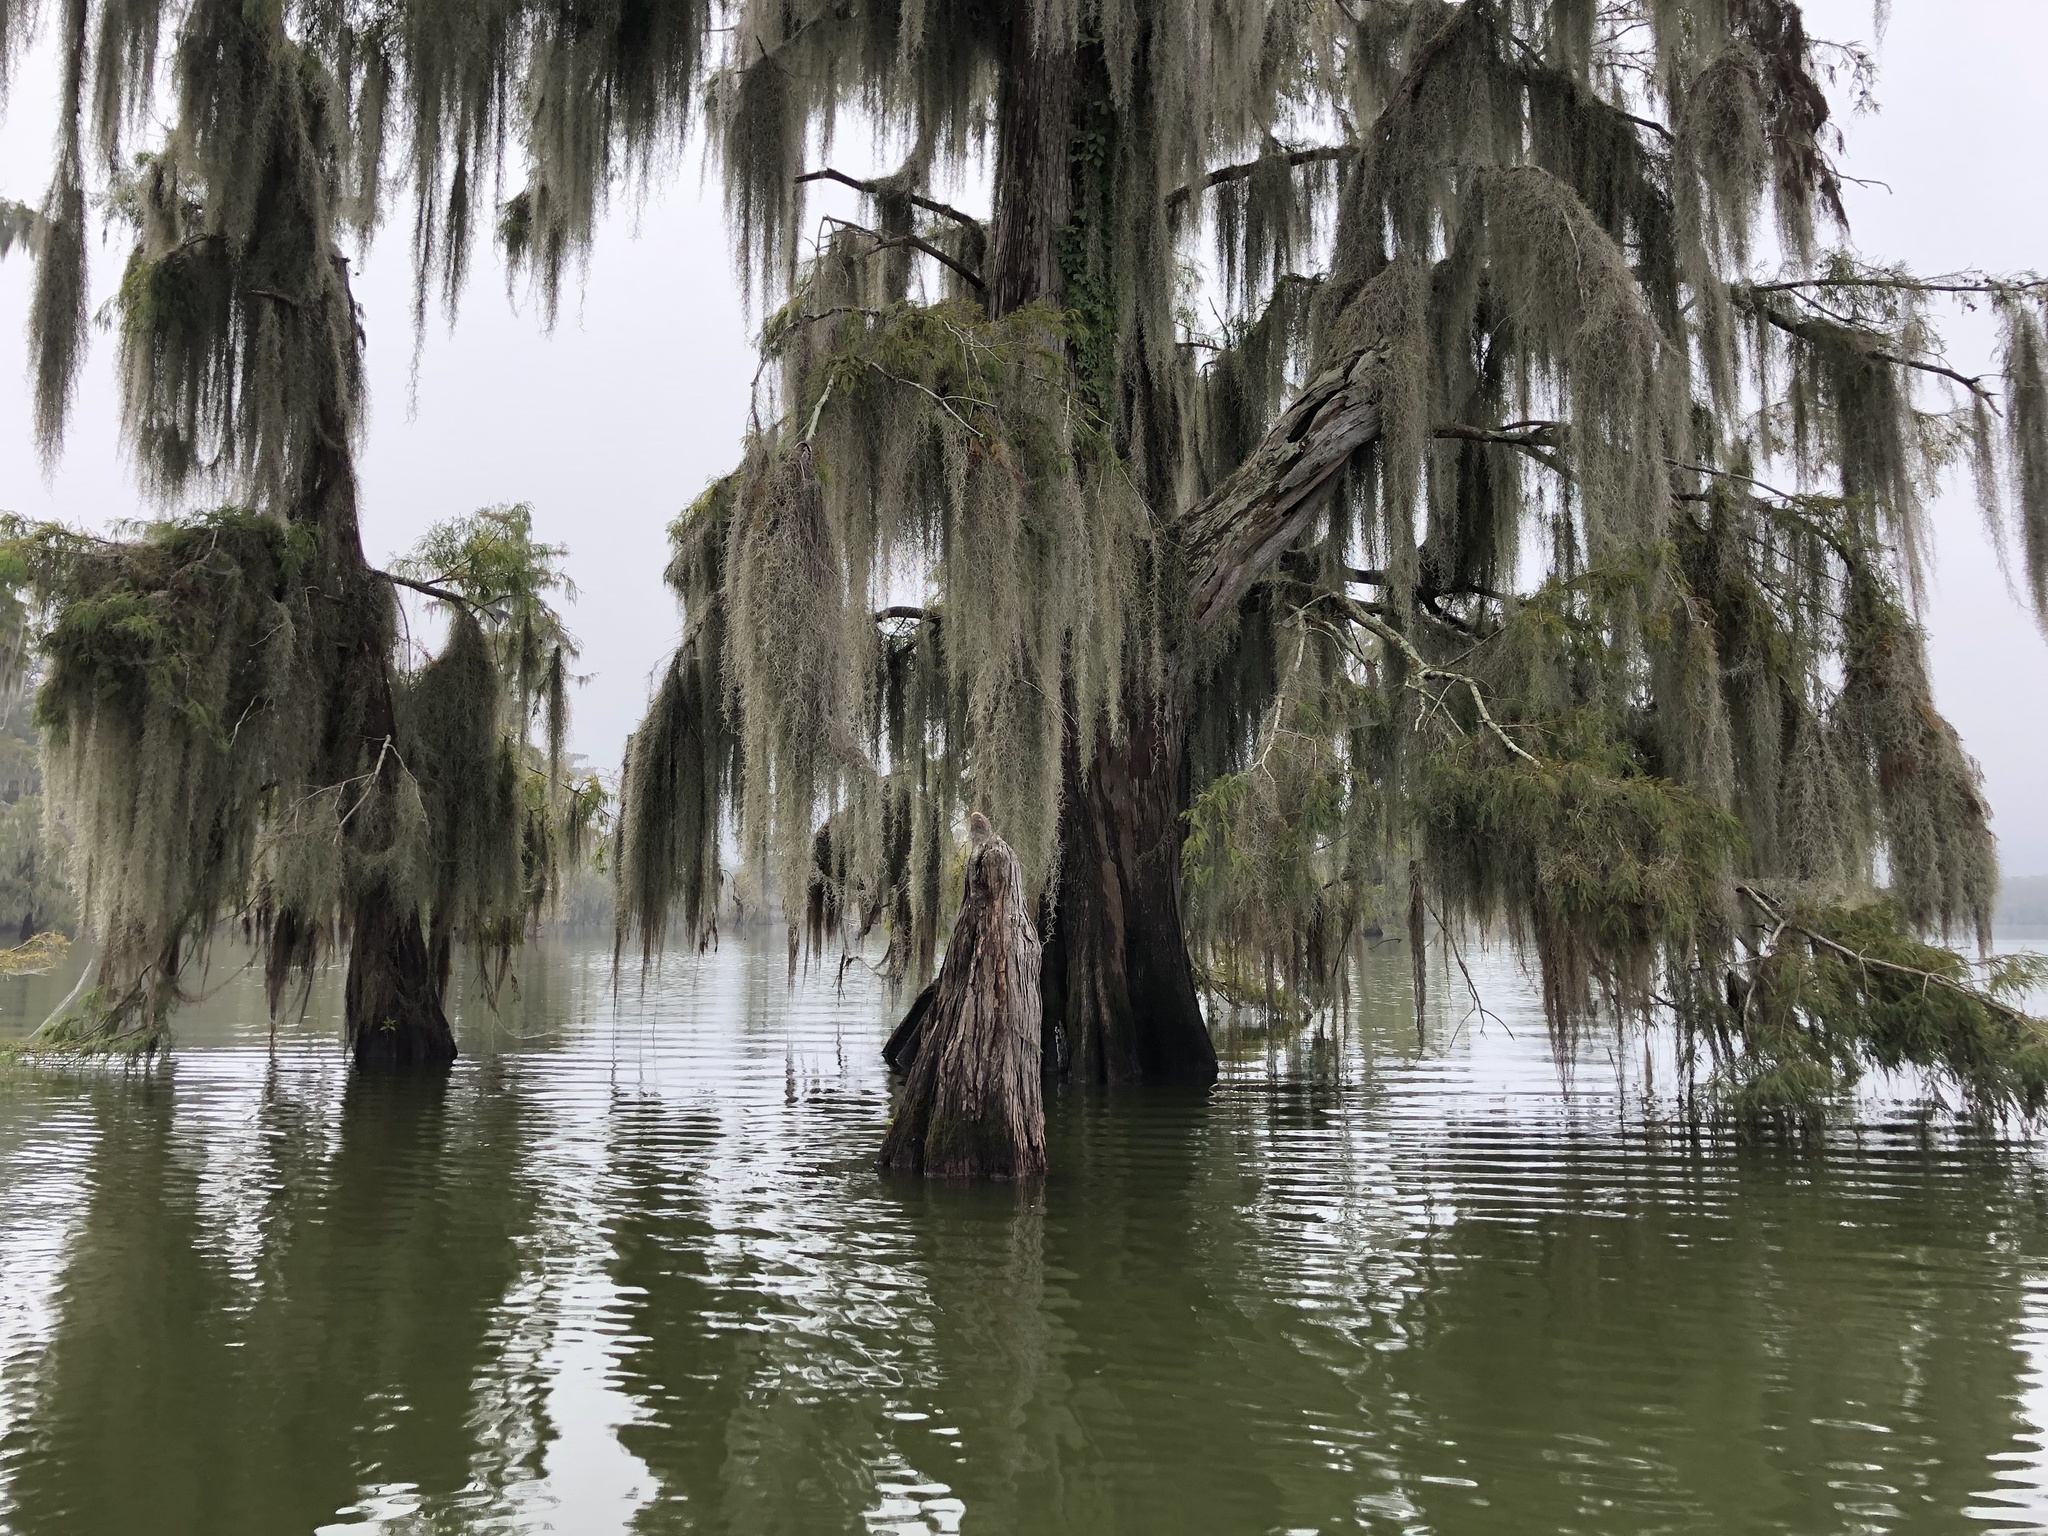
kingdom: Plantae
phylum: Tracheophyta
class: Liliopsida
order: Poales
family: Bromeliaceae
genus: Tillandsia
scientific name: Tillandsia usneoides
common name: Spanish moss
